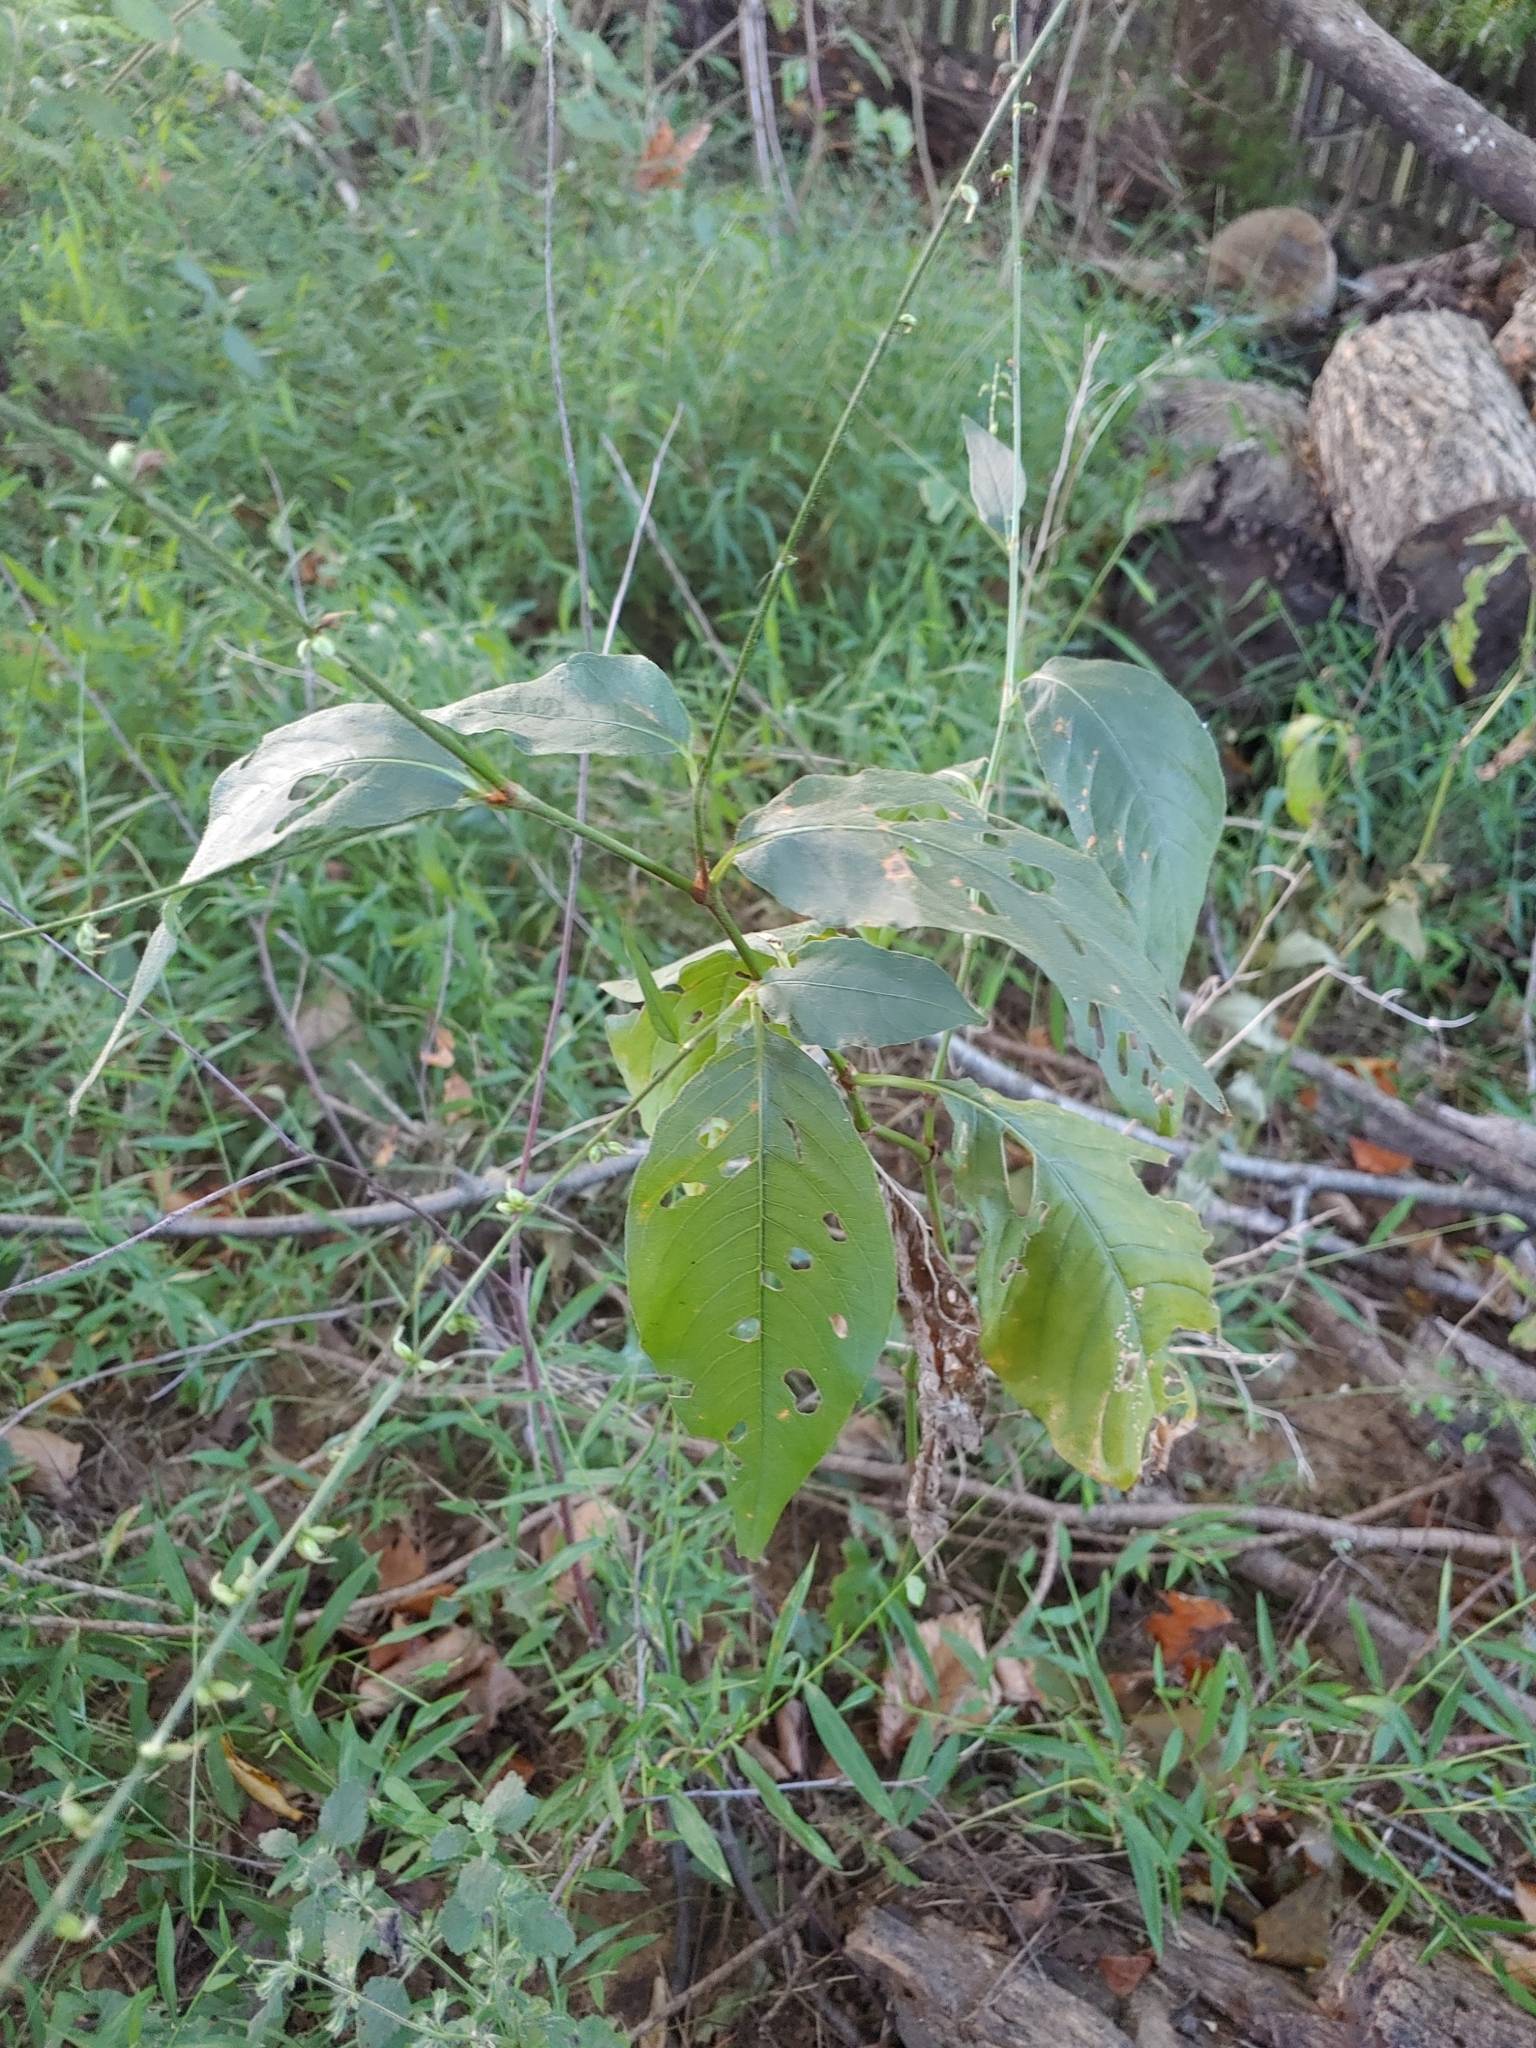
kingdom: Plantae
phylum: Tracheophyta
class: Magnoliopsida
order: Caryophyllales
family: Polygonaceae
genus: Persicaria
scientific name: Persicaria virginiana
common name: Jumpseed
